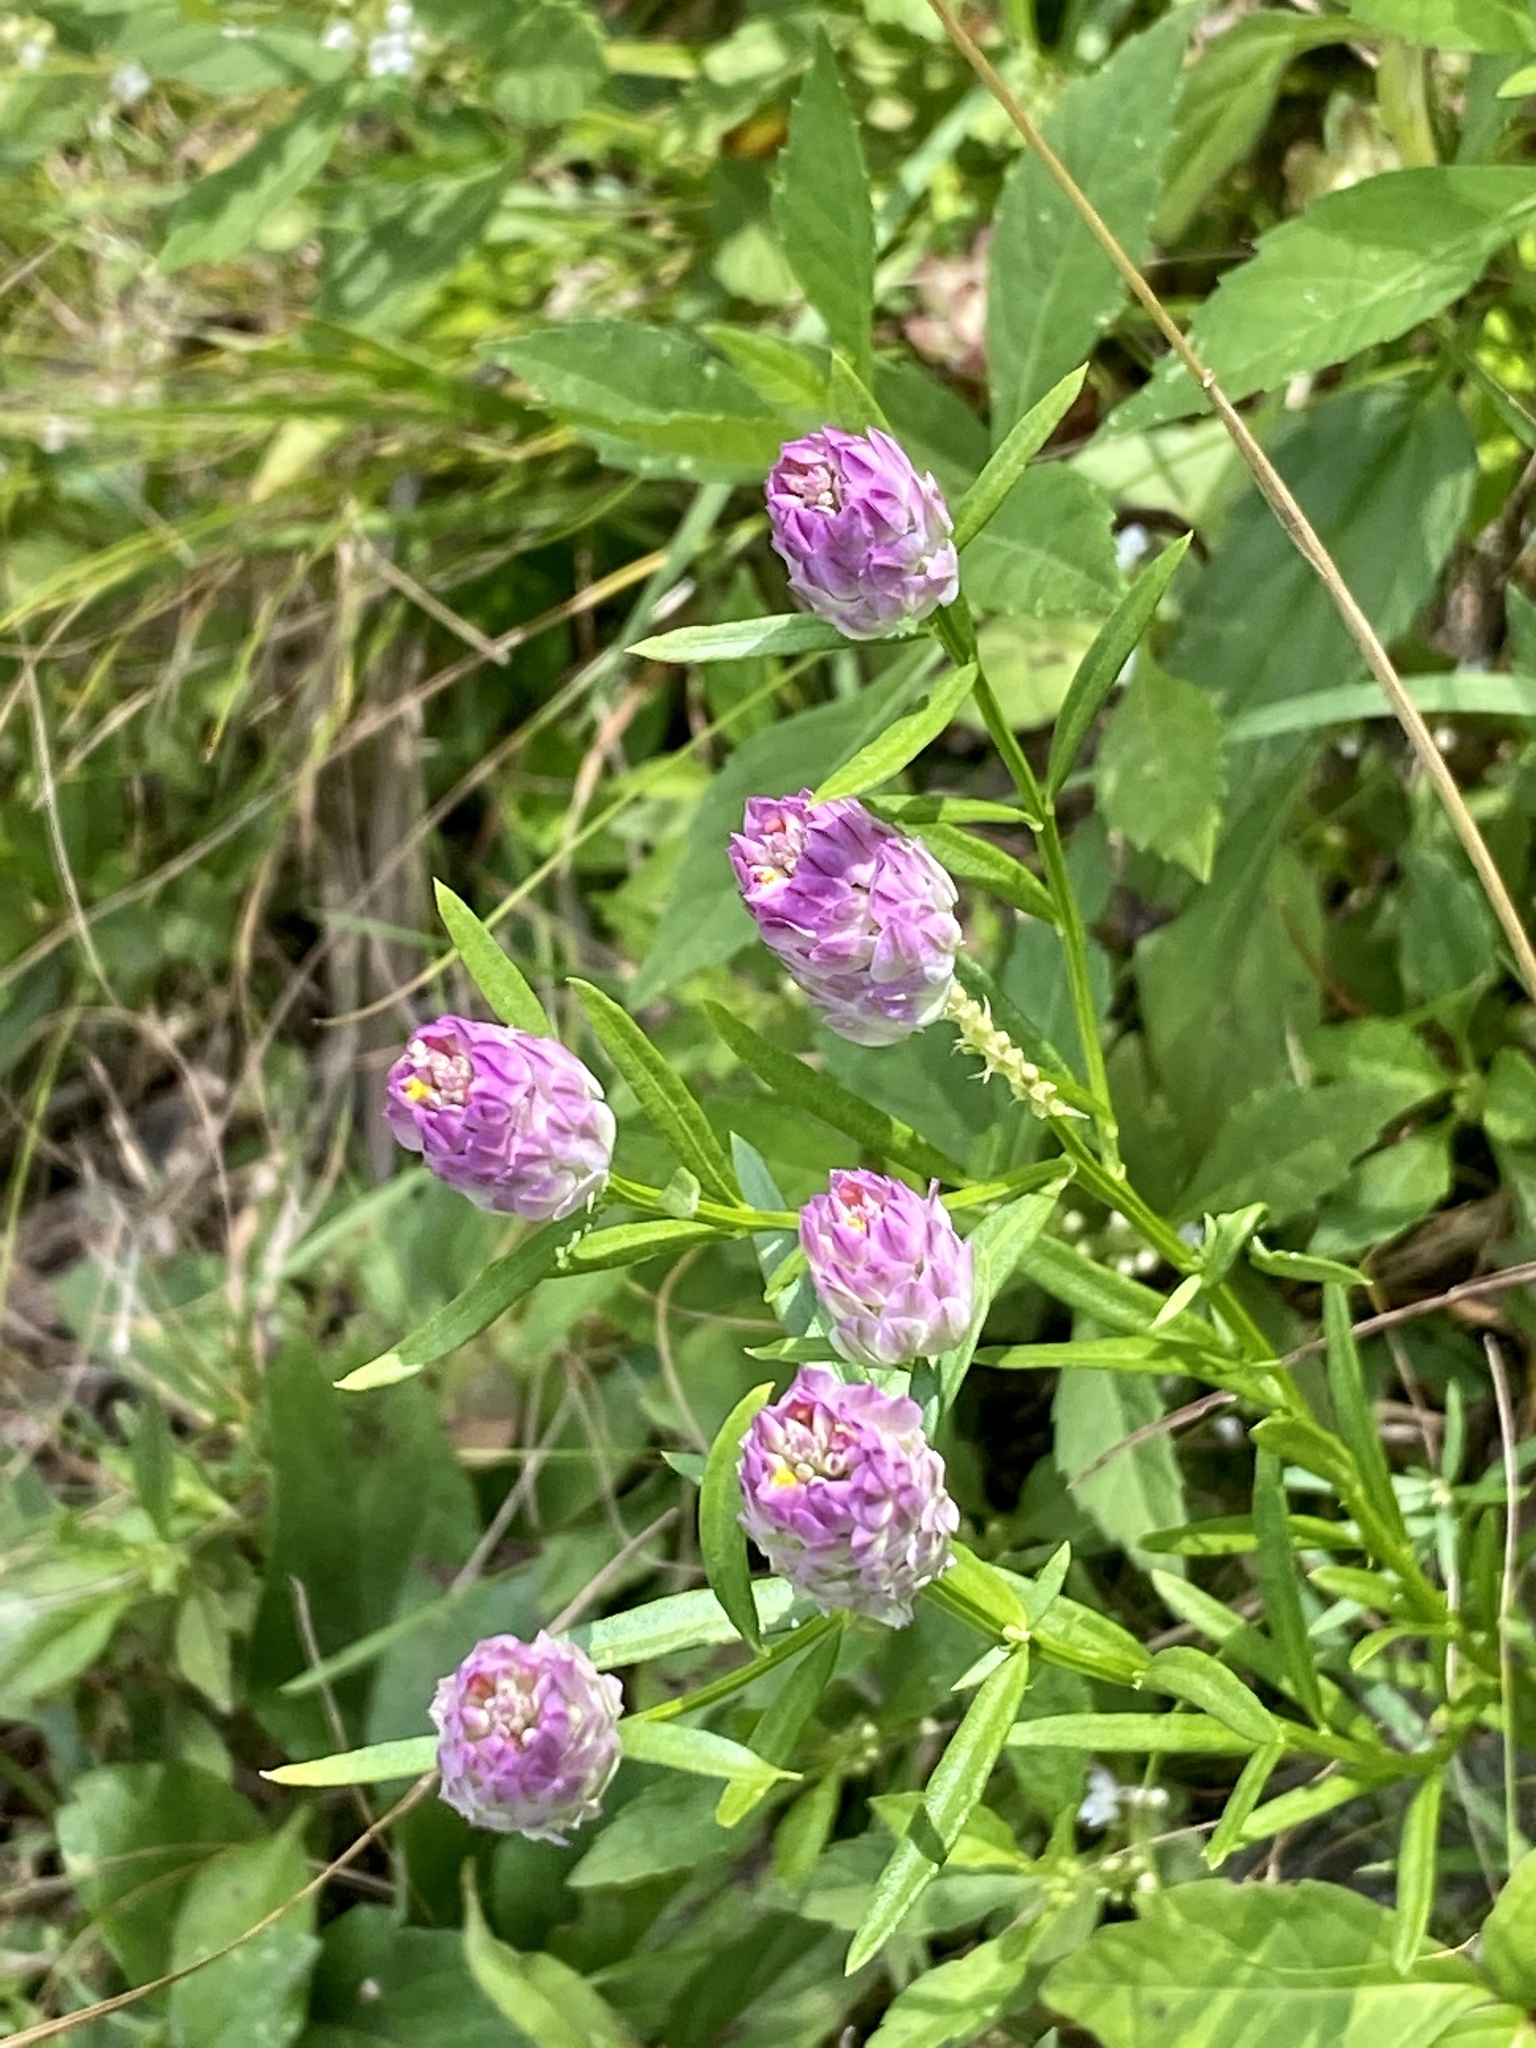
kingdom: Plantae
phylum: Tracheophyta
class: Magnoliopsida
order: Fabales
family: Polygalaceae
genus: Polygala
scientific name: Polygala sanguinea
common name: Blood milkwort
